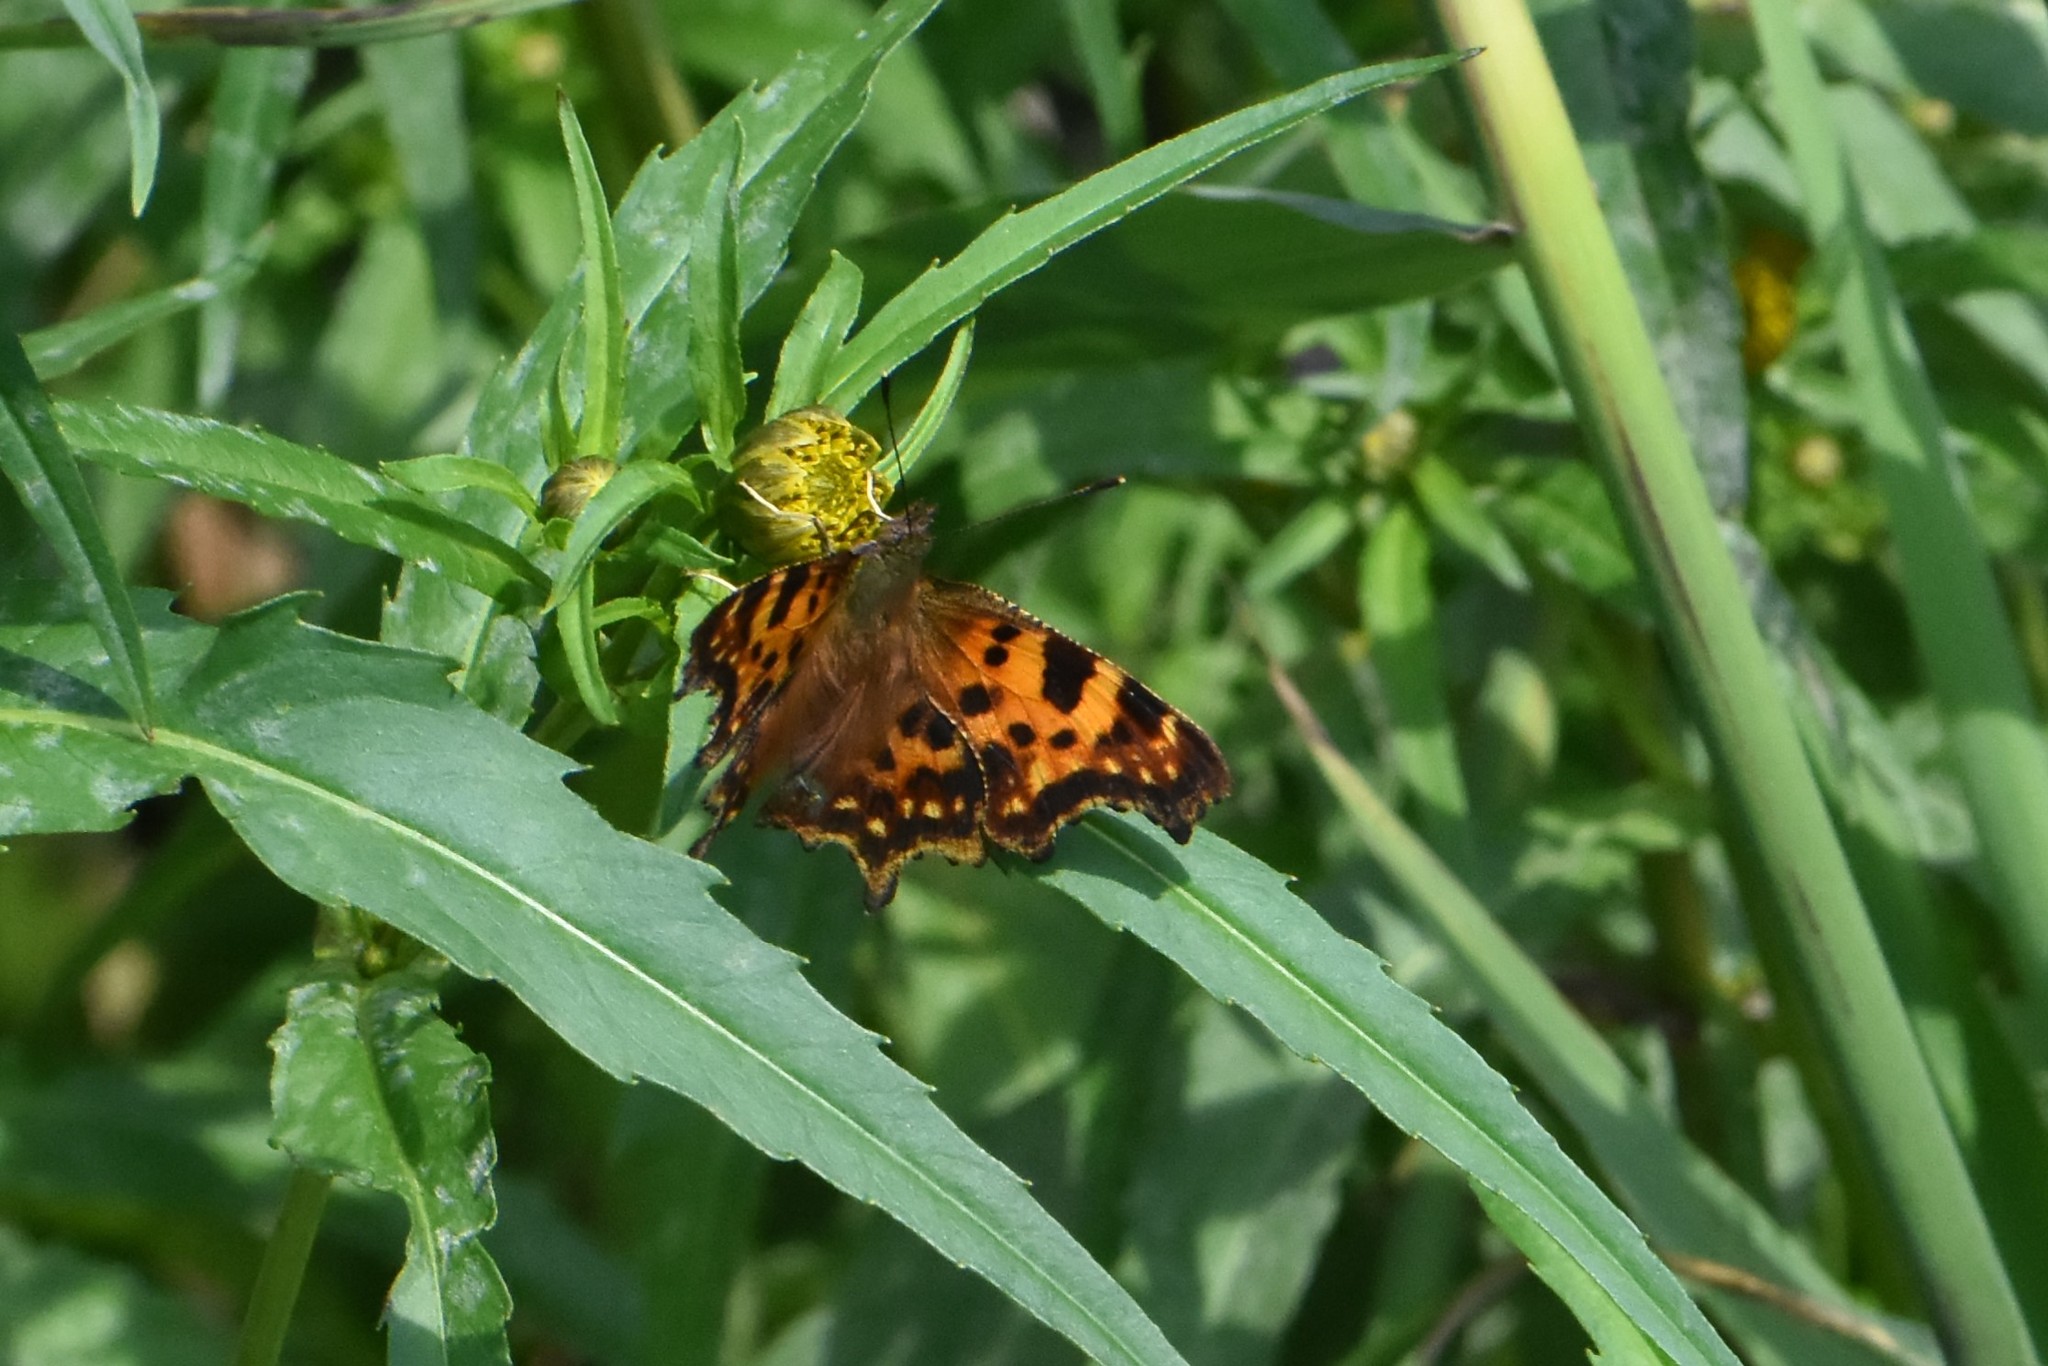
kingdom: Animalia
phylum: Arthropoda
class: Insecta
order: Lepidoptera
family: Nymphalidae
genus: Polygonia
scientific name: Polygonia c-album
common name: Comma
